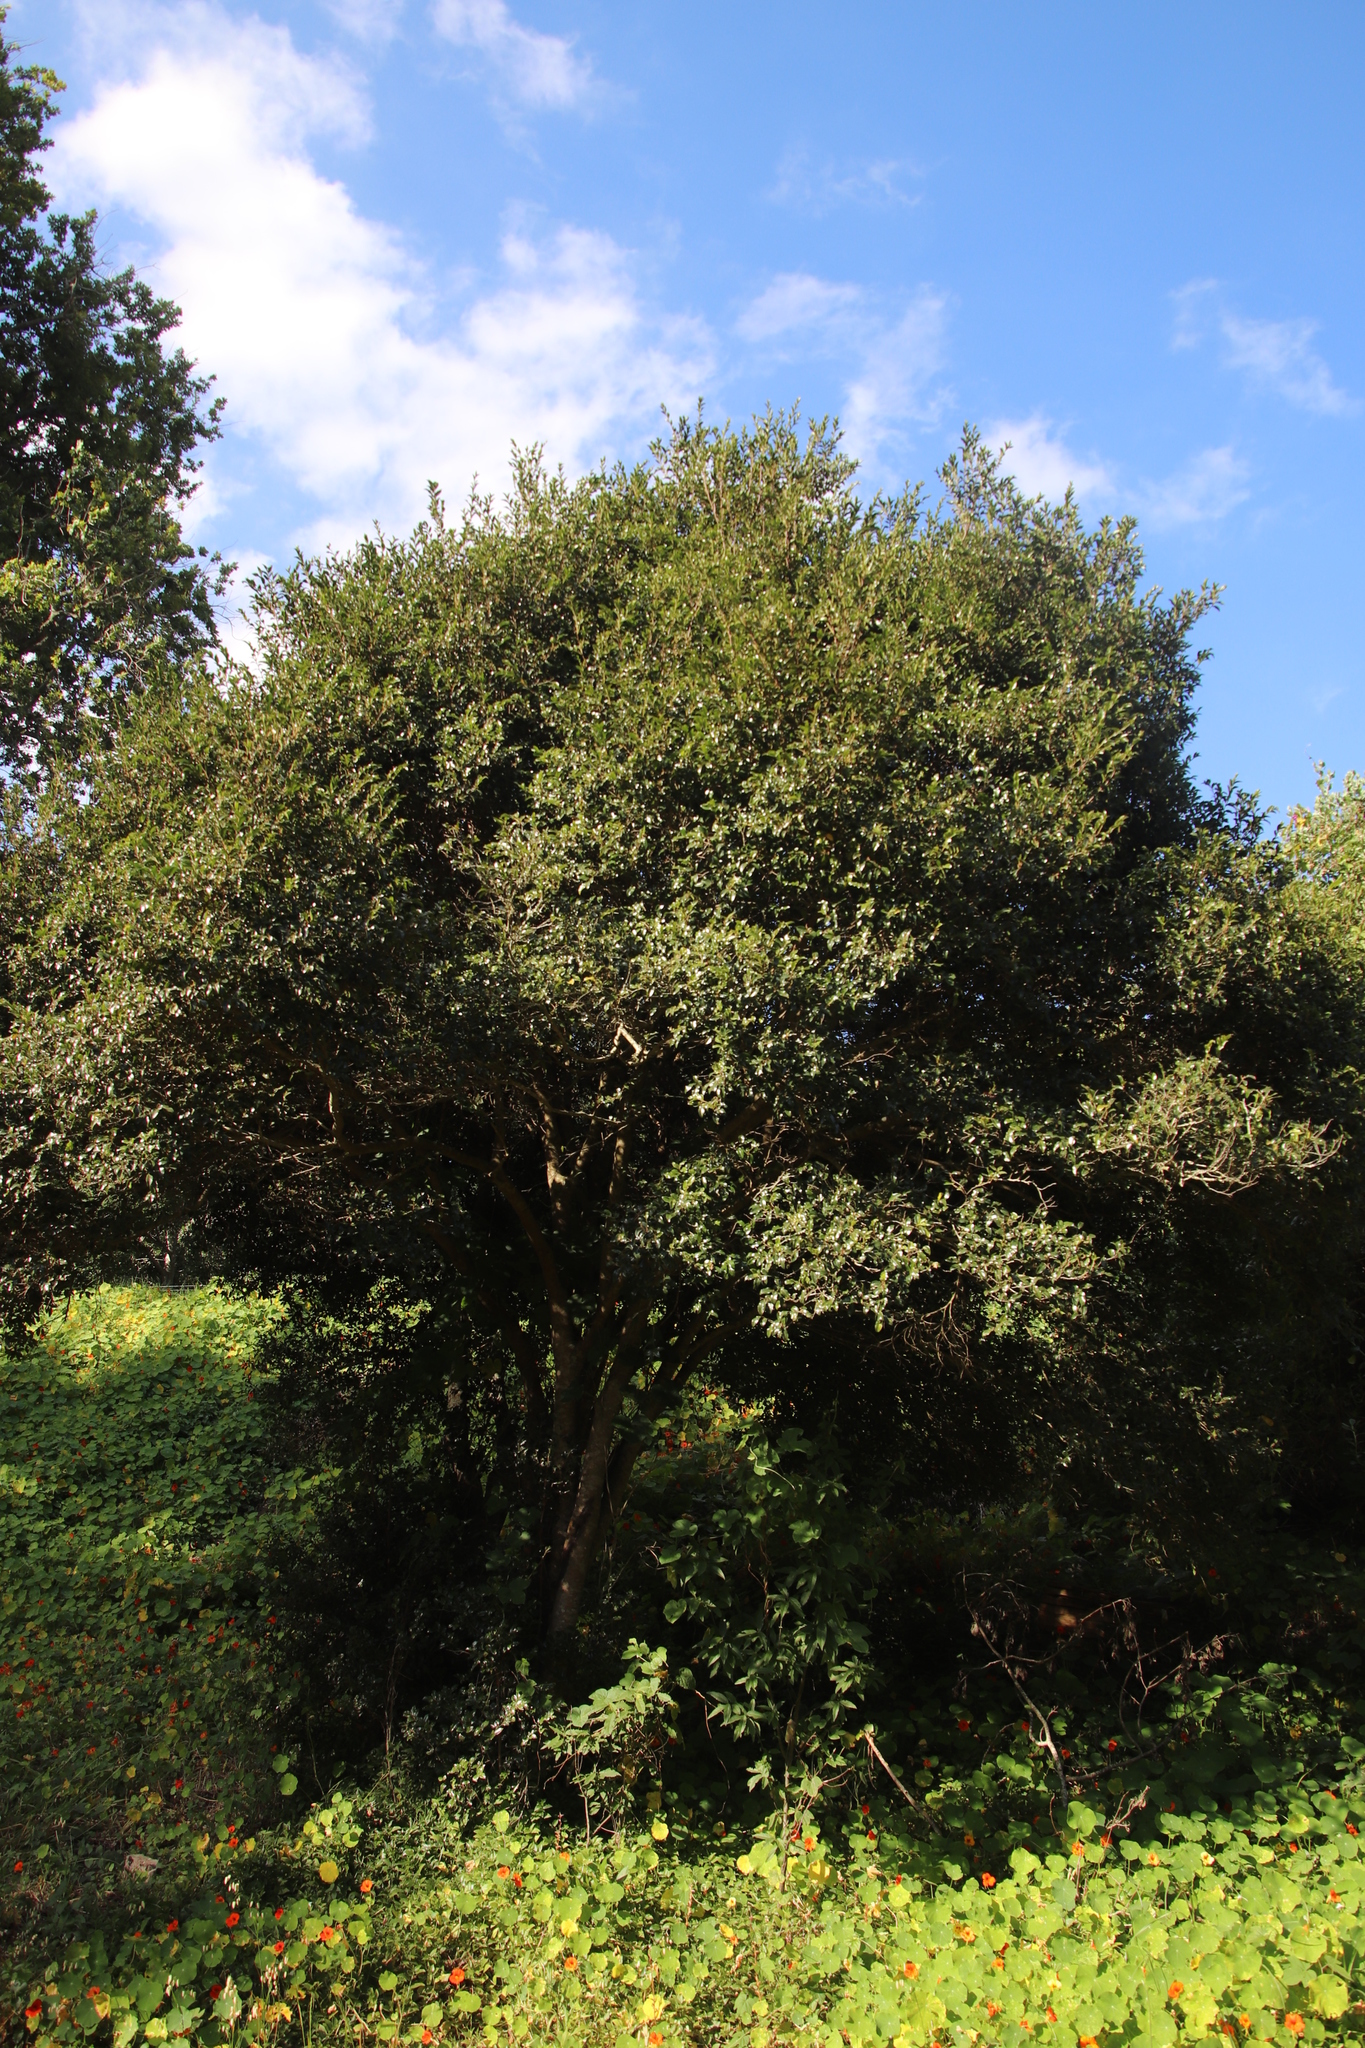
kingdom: Plantae
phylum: Tracheophyta
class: Magnoliopsida
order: Ericales
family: Ebenaceae
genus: Diospyros
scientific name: Diospyros whyteana
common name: Bladder-nut
